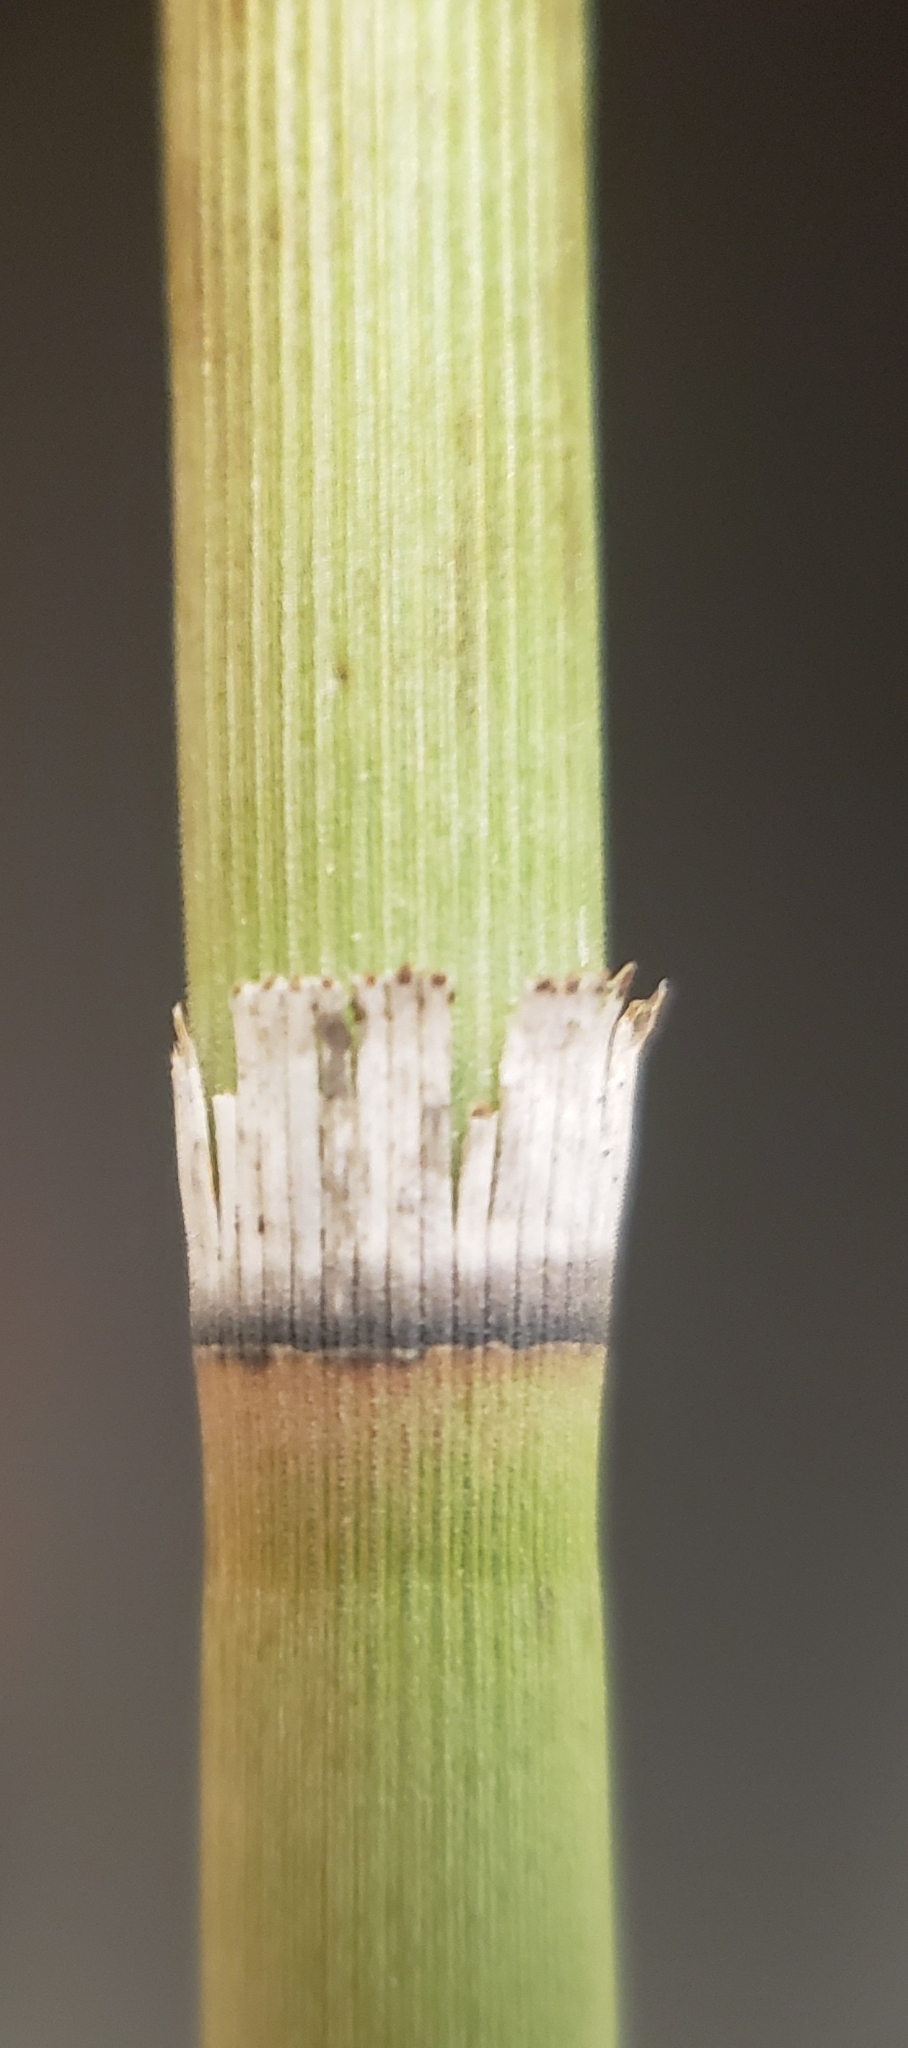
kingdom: Plantae
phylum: Tracheophyta
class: Polypodiopsida
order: Equisetales
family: Equisetaceae
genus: Equisetum
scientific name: Equisetum hyemale
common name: Rough horsetail
